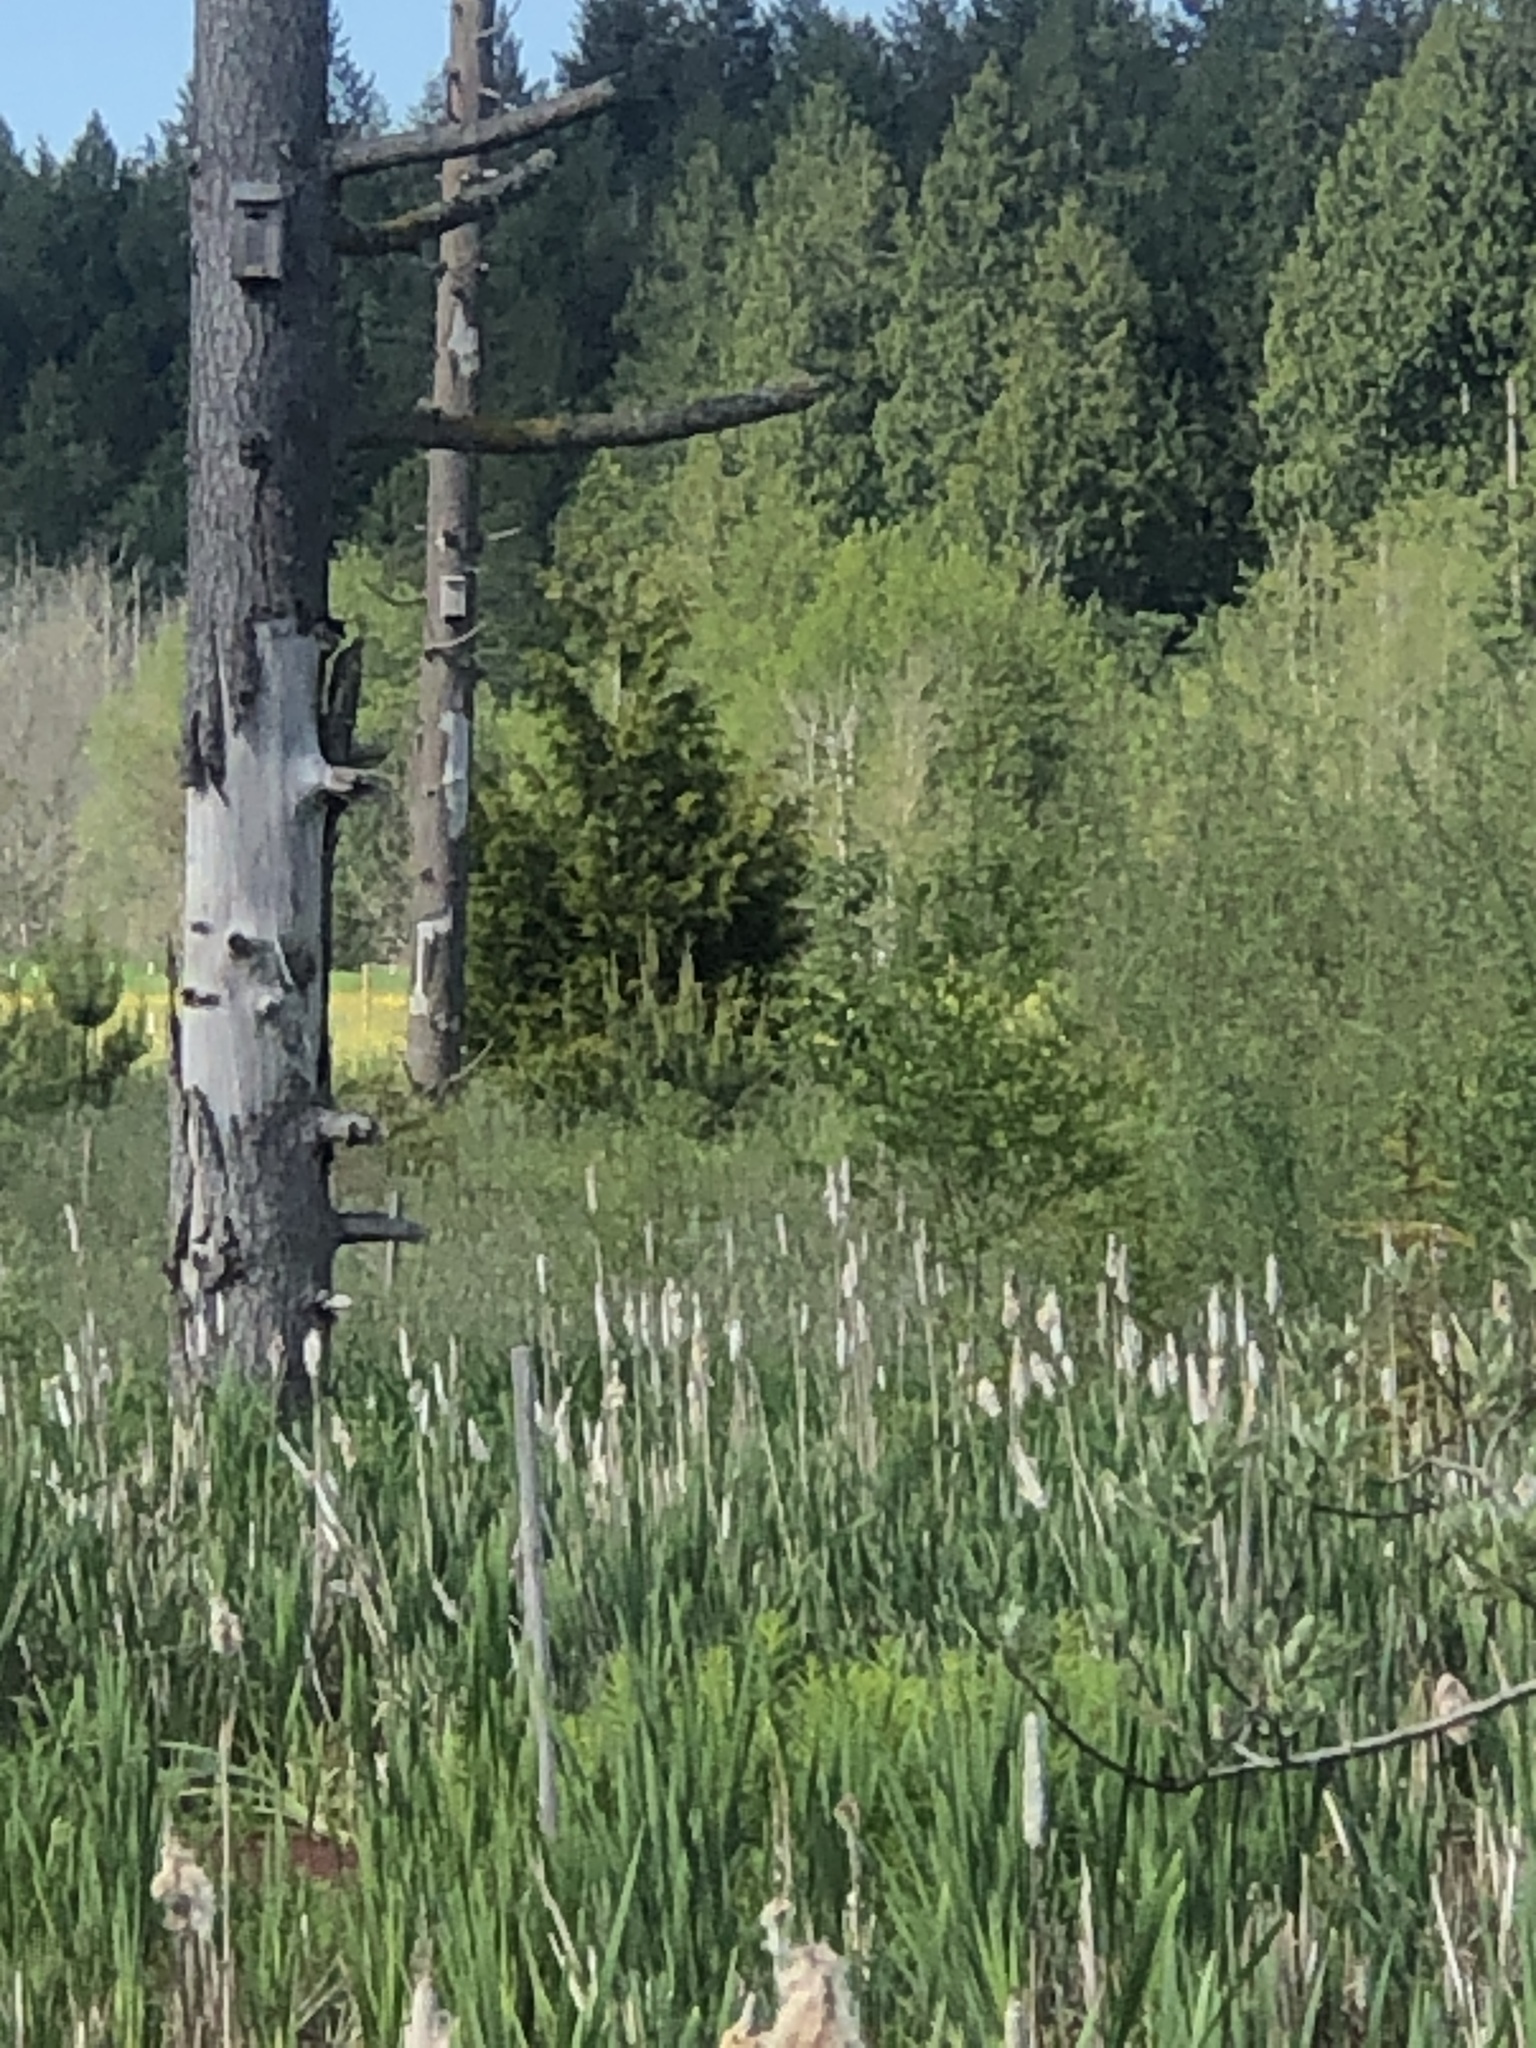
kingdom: Animalia
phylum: Chordata
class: Aves
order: Passeriformes
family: Icteridae
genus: Agelaius
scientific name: Agelaius phoeniceus
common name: Red-winged blackbird
